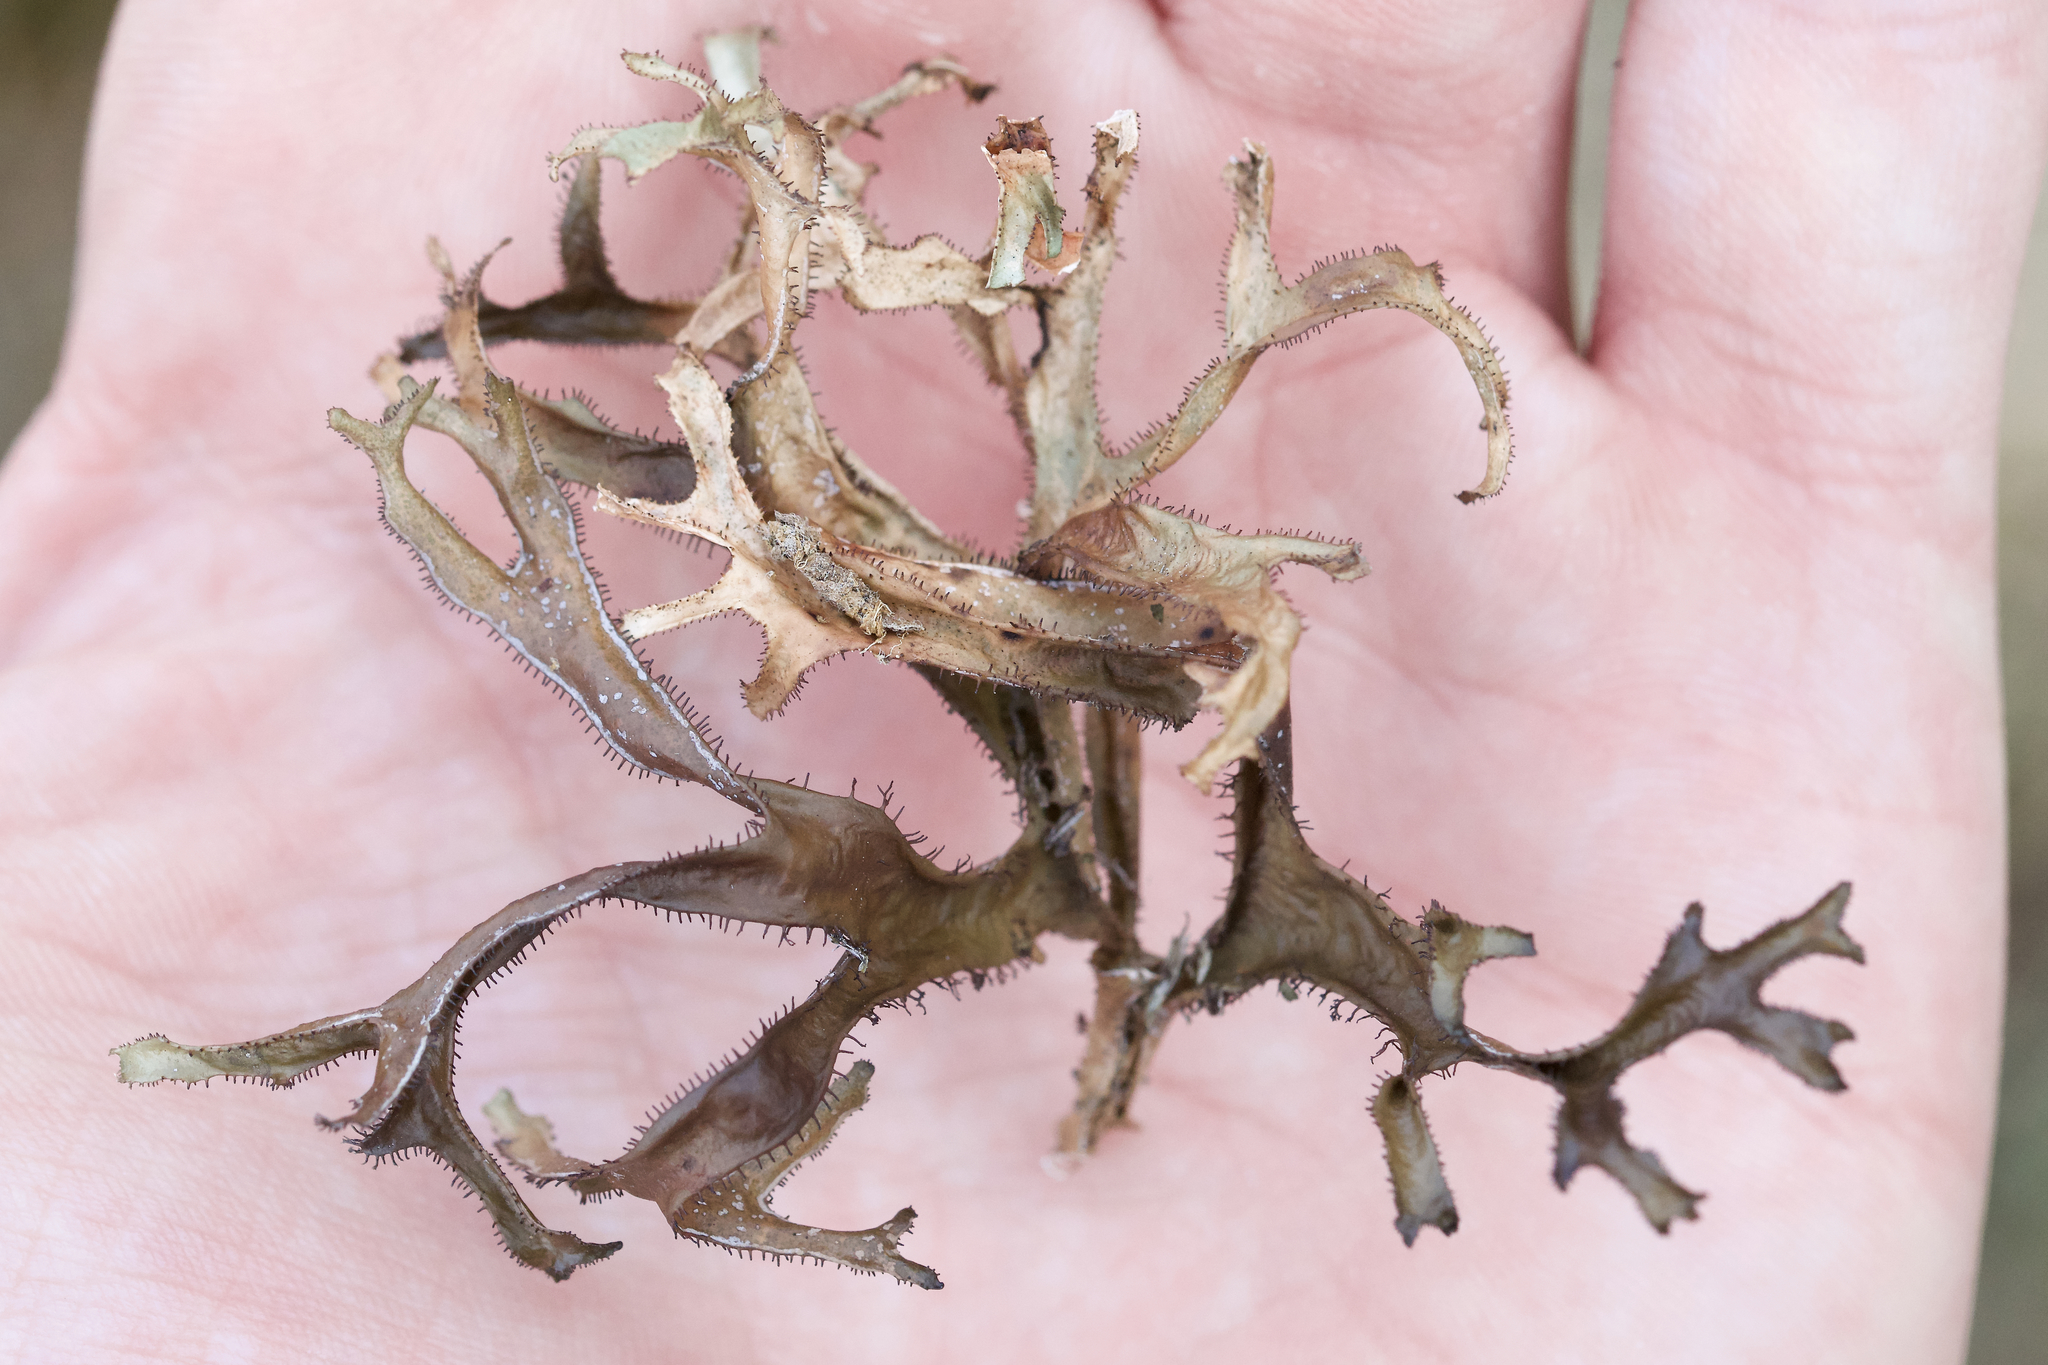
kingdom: Fungi
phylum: Ascomycota
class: Lecanoromycetes
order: Lecanorales
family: Parmeliaceae
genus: Cetraria
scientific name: Cetraria arenaria
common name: Sand-loving iceland lichen
